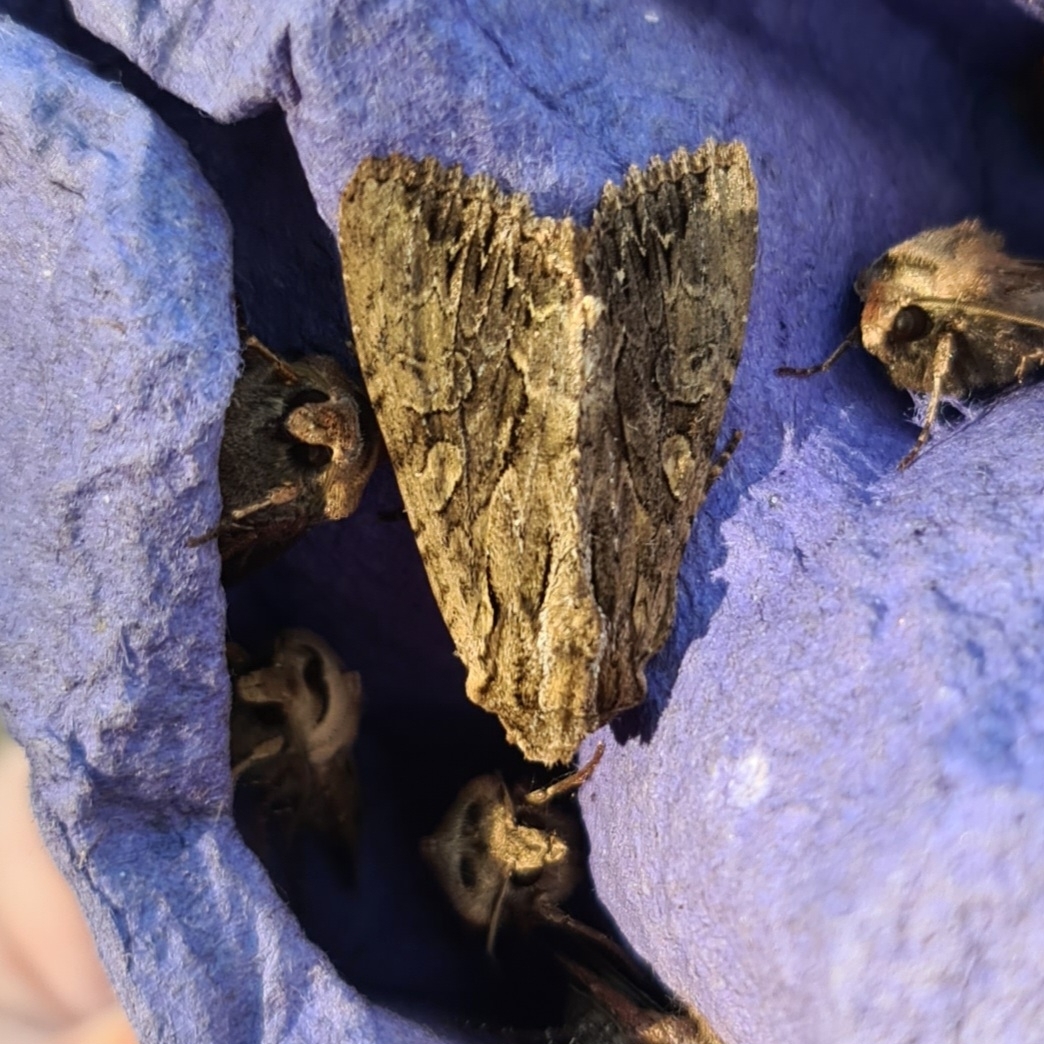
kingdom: Animalia
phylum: Arthropoda
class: Insecta
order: Lepidoptera
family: Noctuidae
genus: Apamea
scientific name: Apamea monoglypha
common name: Dark arches
